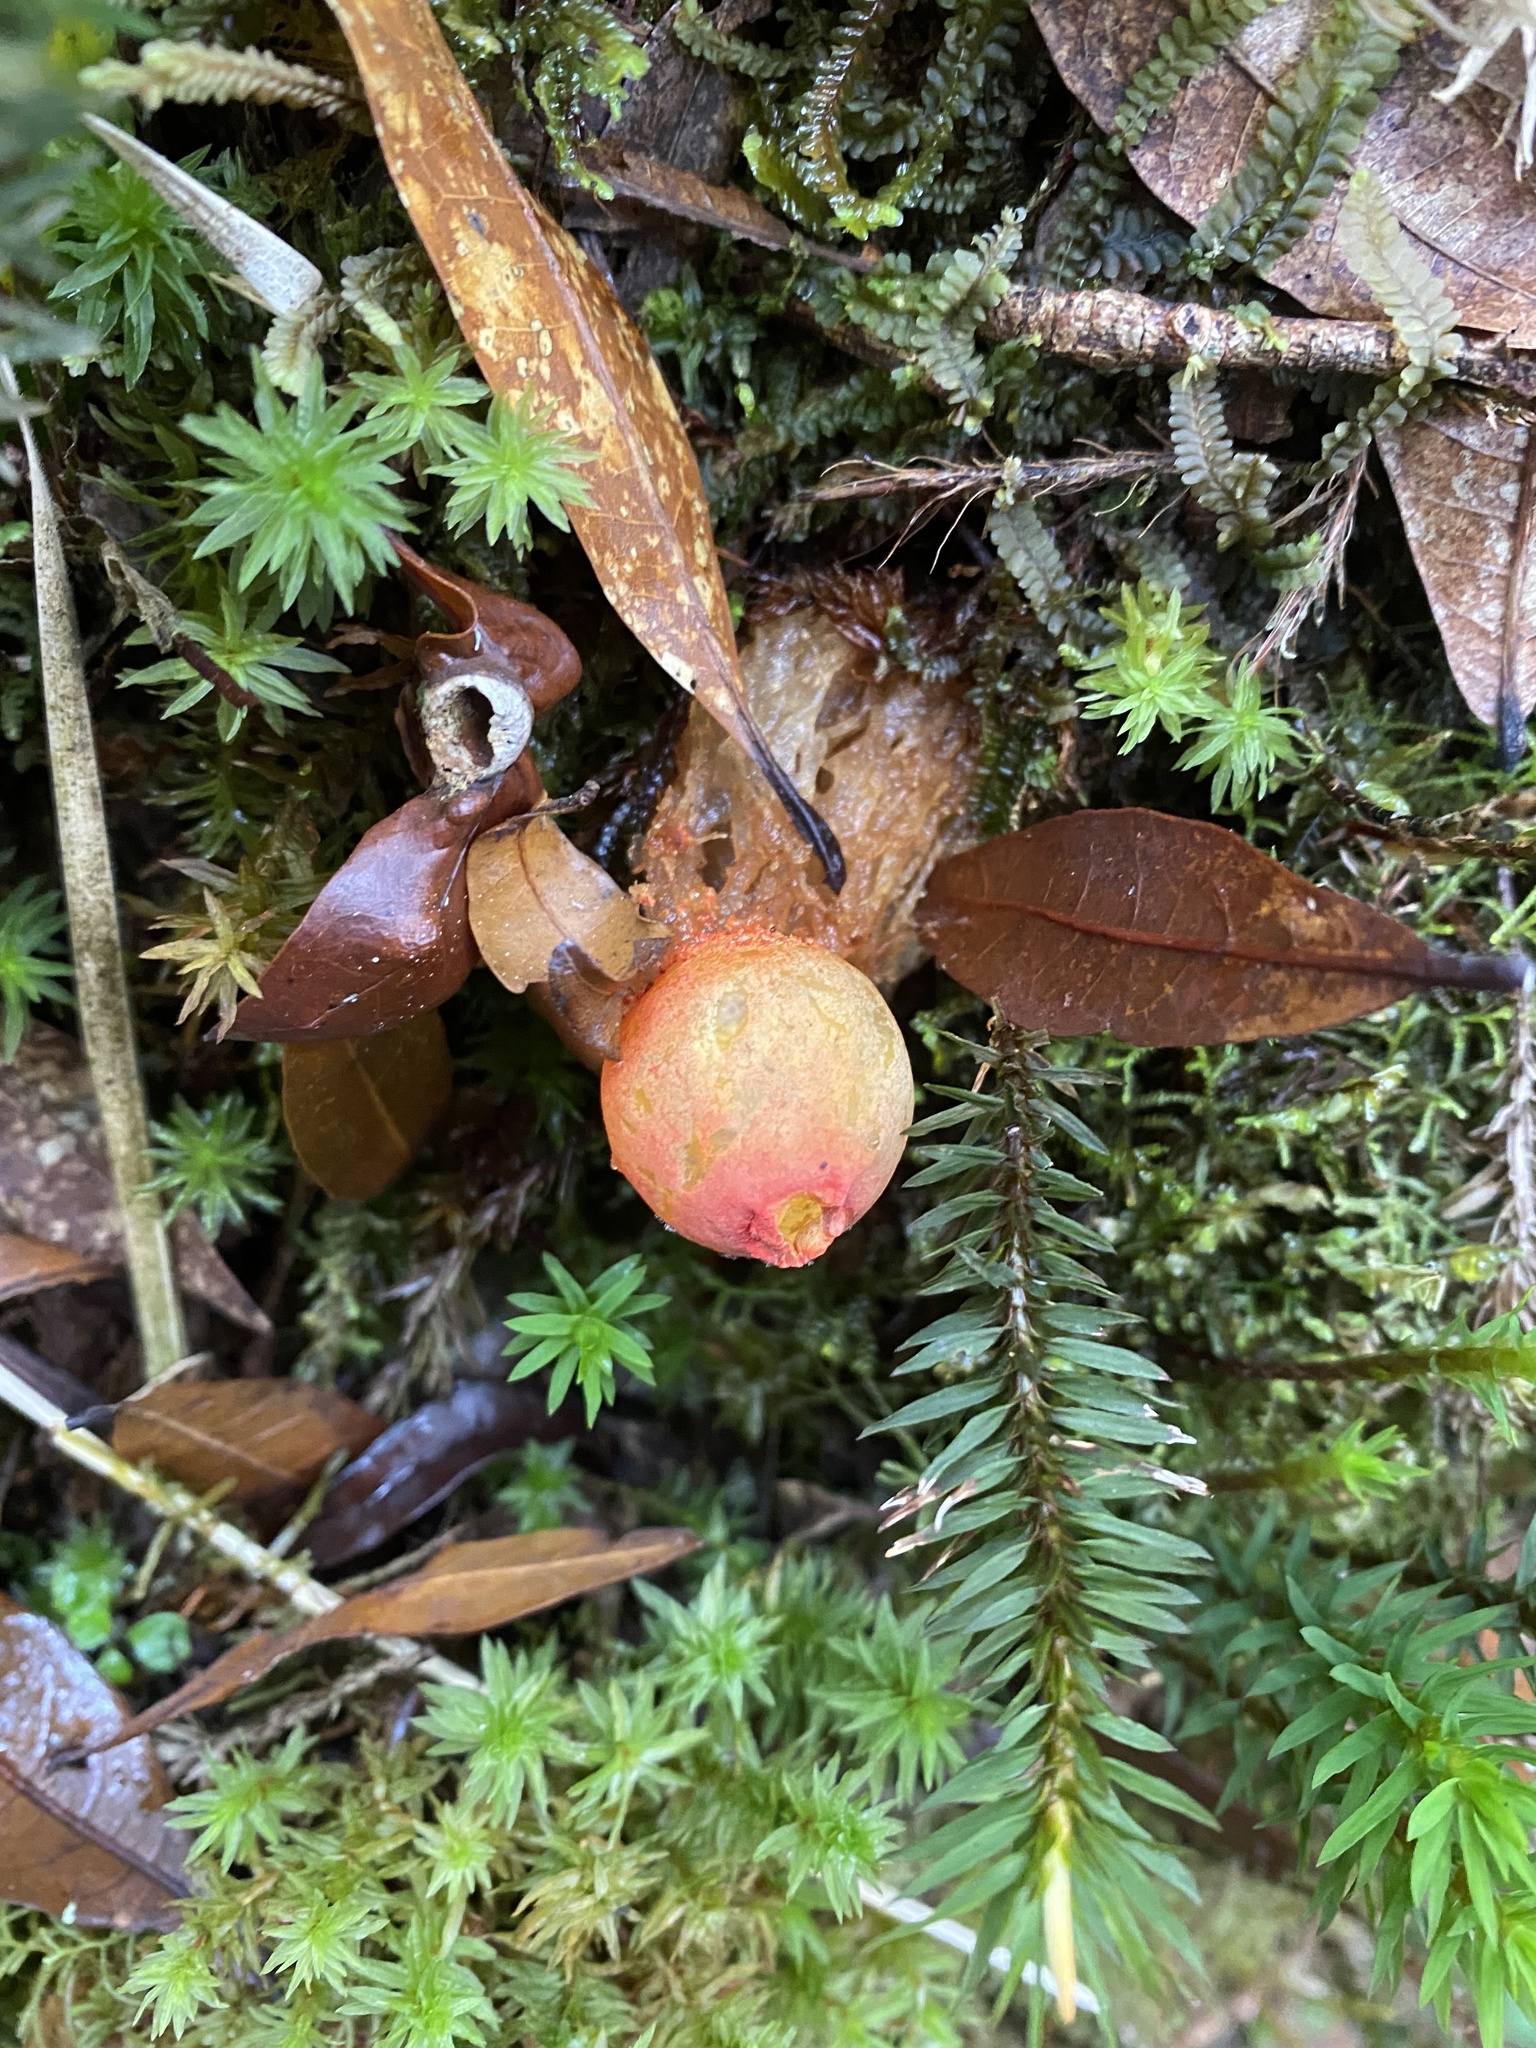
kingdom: Fungi
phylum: Basidiomycota
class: Agaricomycetes
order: Boletales
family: Calostomataceae
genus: Calostoma
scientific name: Calostoma cinnabarinum
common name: Stalked puffball-in-aspic
